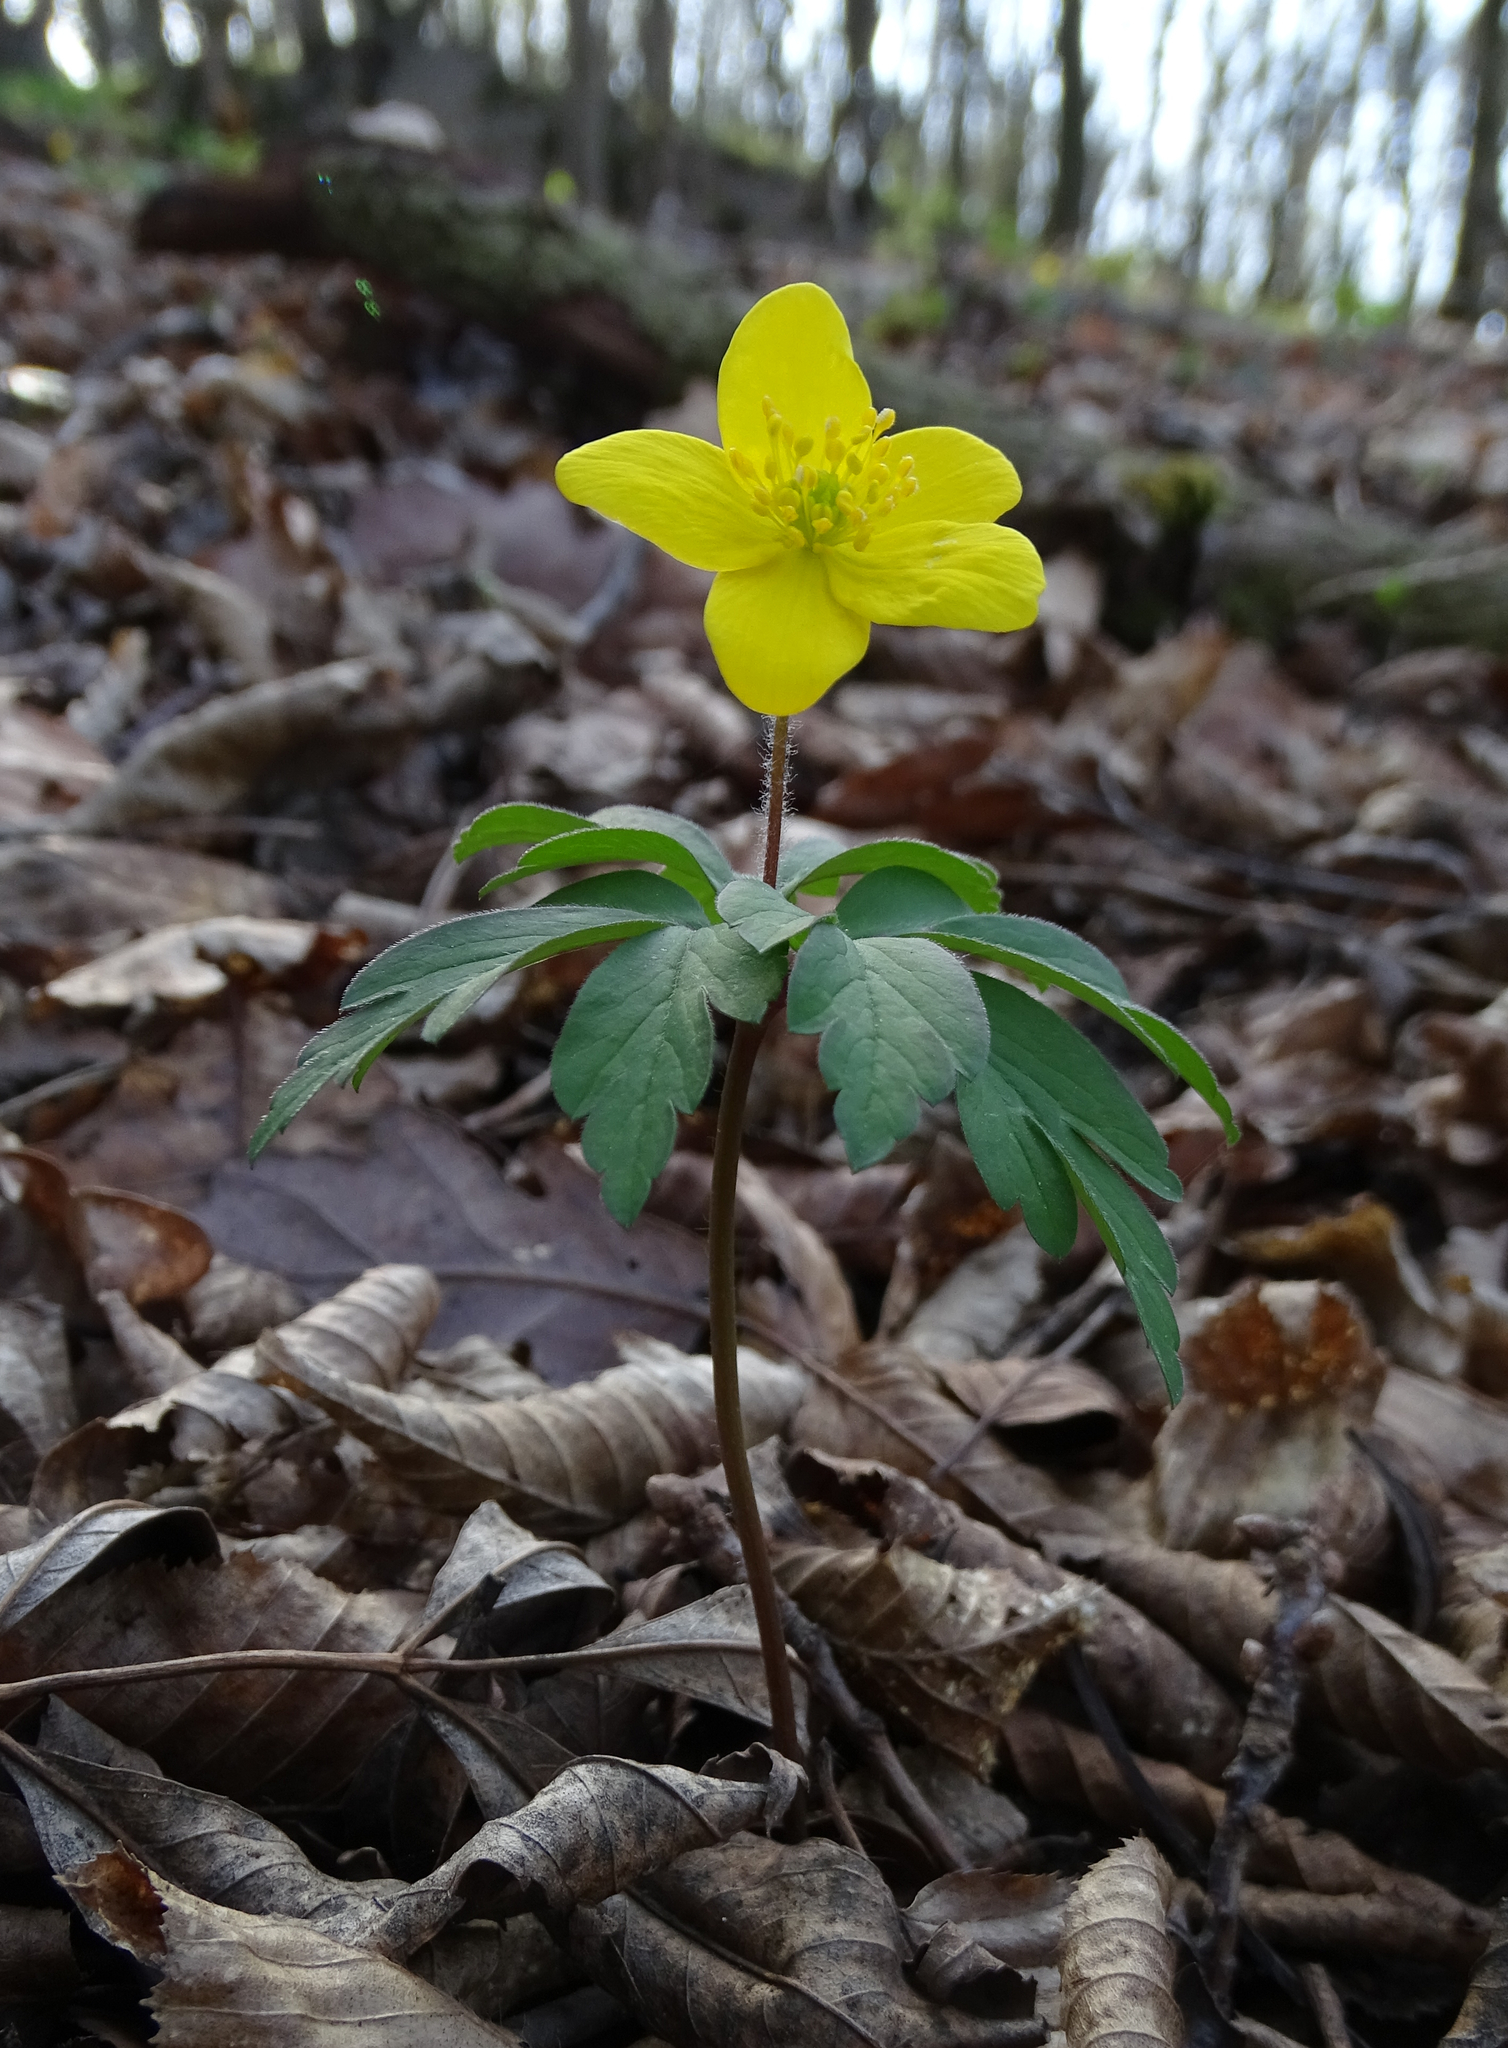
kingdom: Plantae
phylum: Tracheophyta
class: Magnoliopsida
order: Ranunculales
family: Ranunculaceae
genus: Anemone
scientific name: Anemone ranunculoides
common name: Yellow anemone
